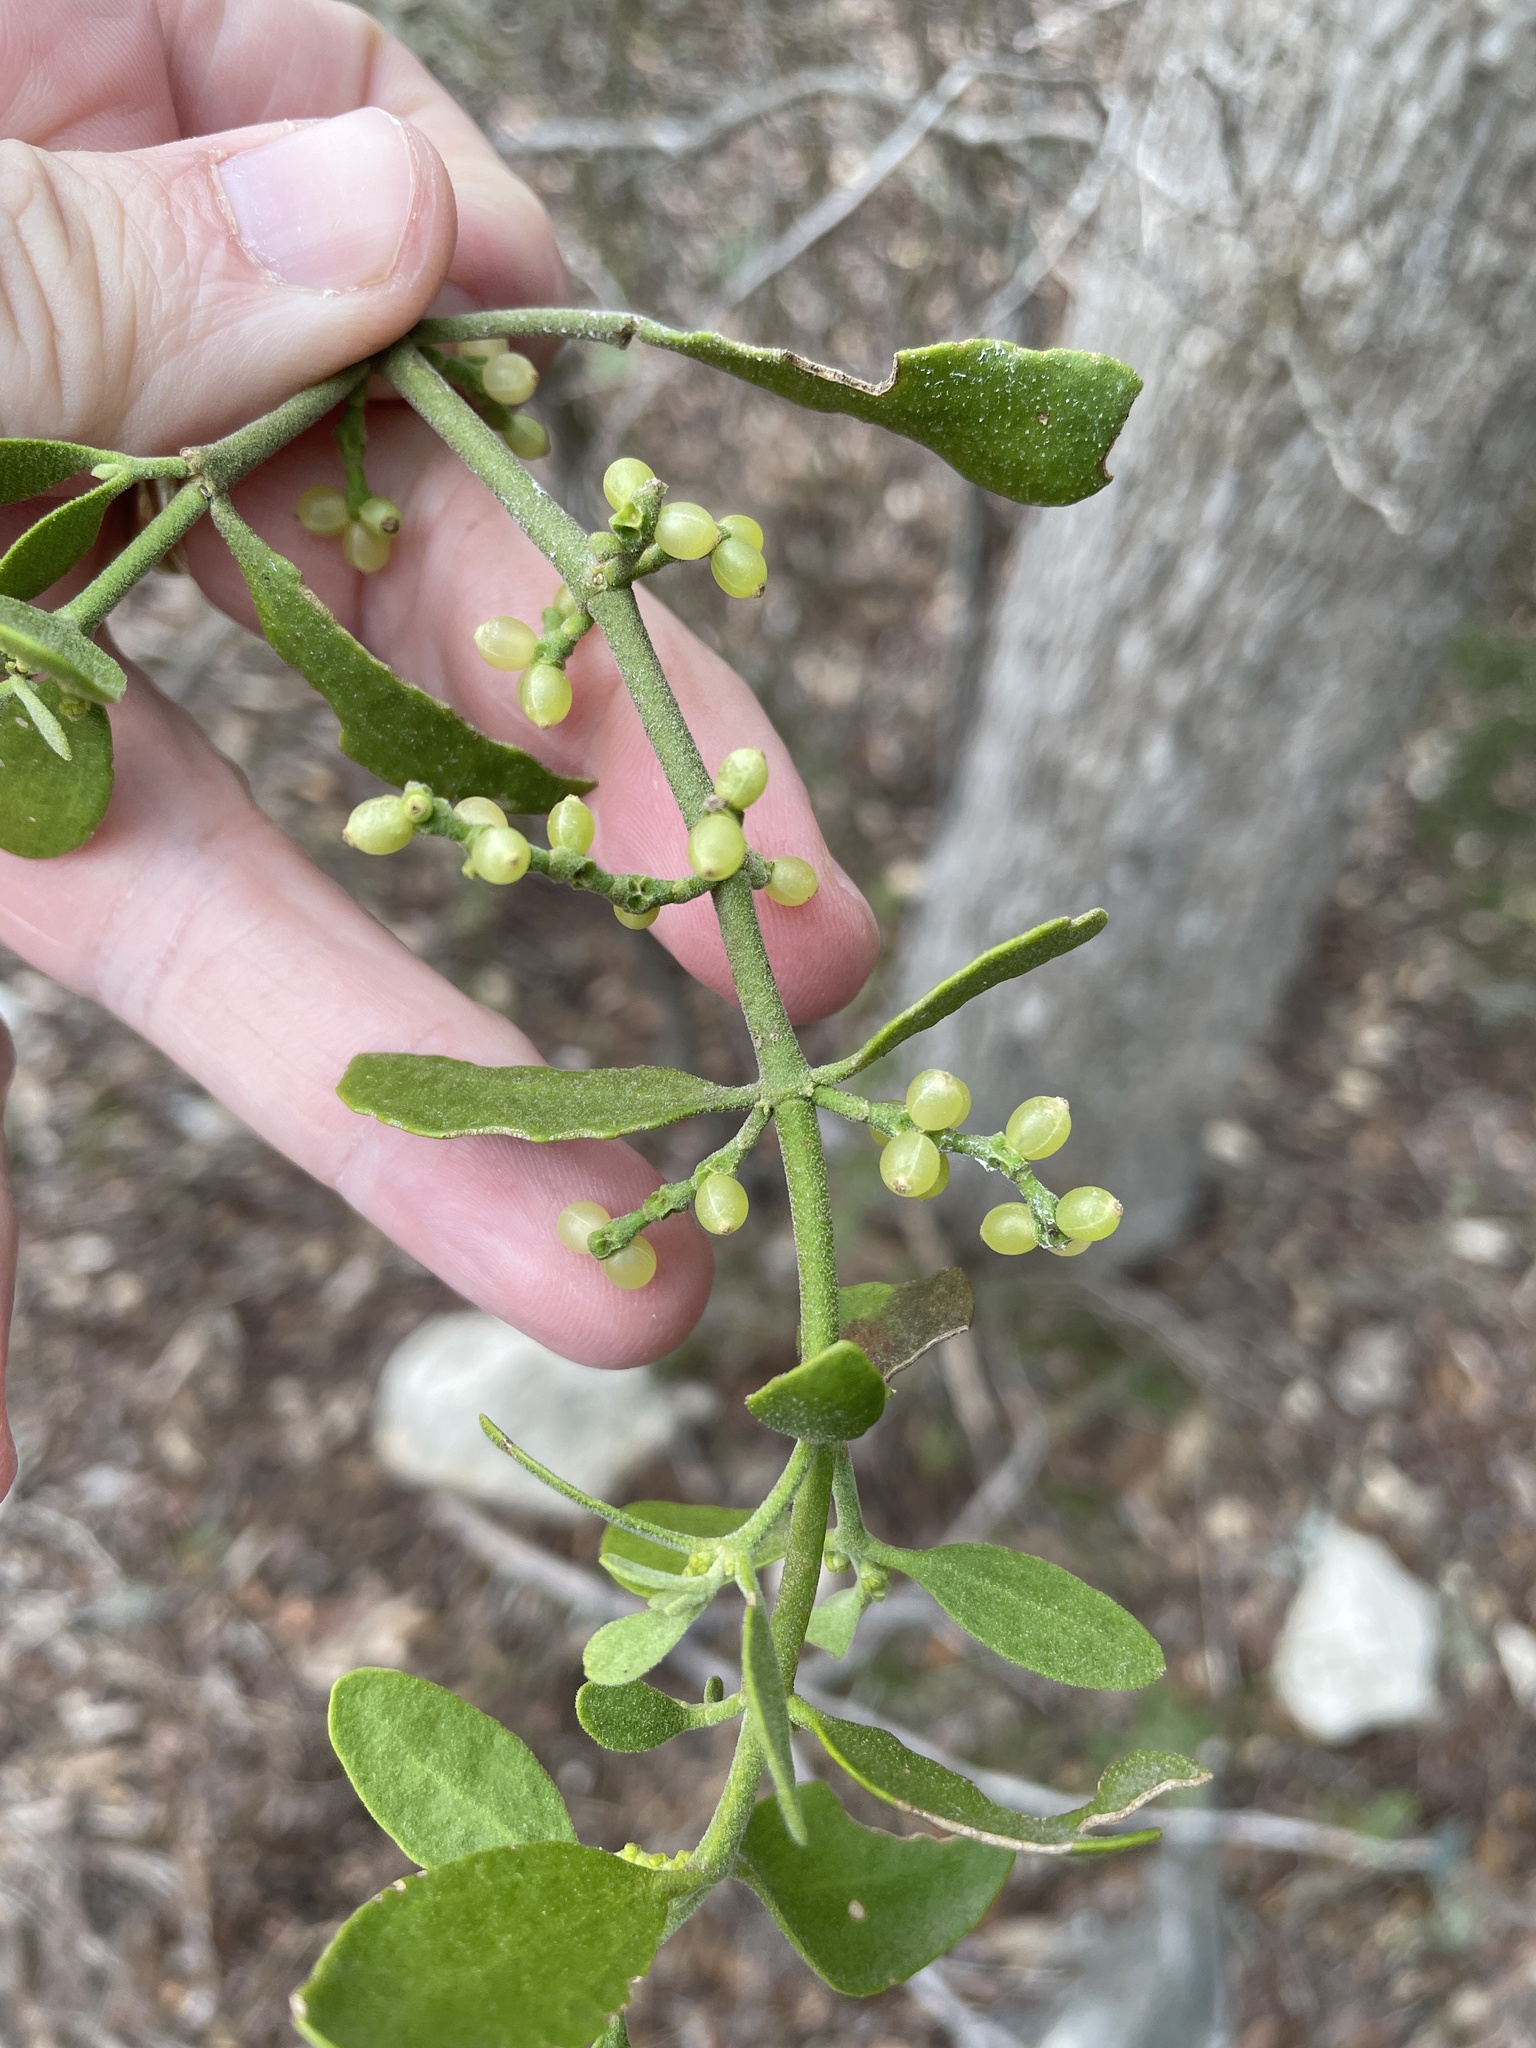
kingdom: Plantae
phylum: Tracheophyta
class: Magnoliopsida
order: Santalales
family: Viscaceae
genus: Phoradendron
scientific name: Phoradendron leucarpum
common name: Pacific mistletoe
